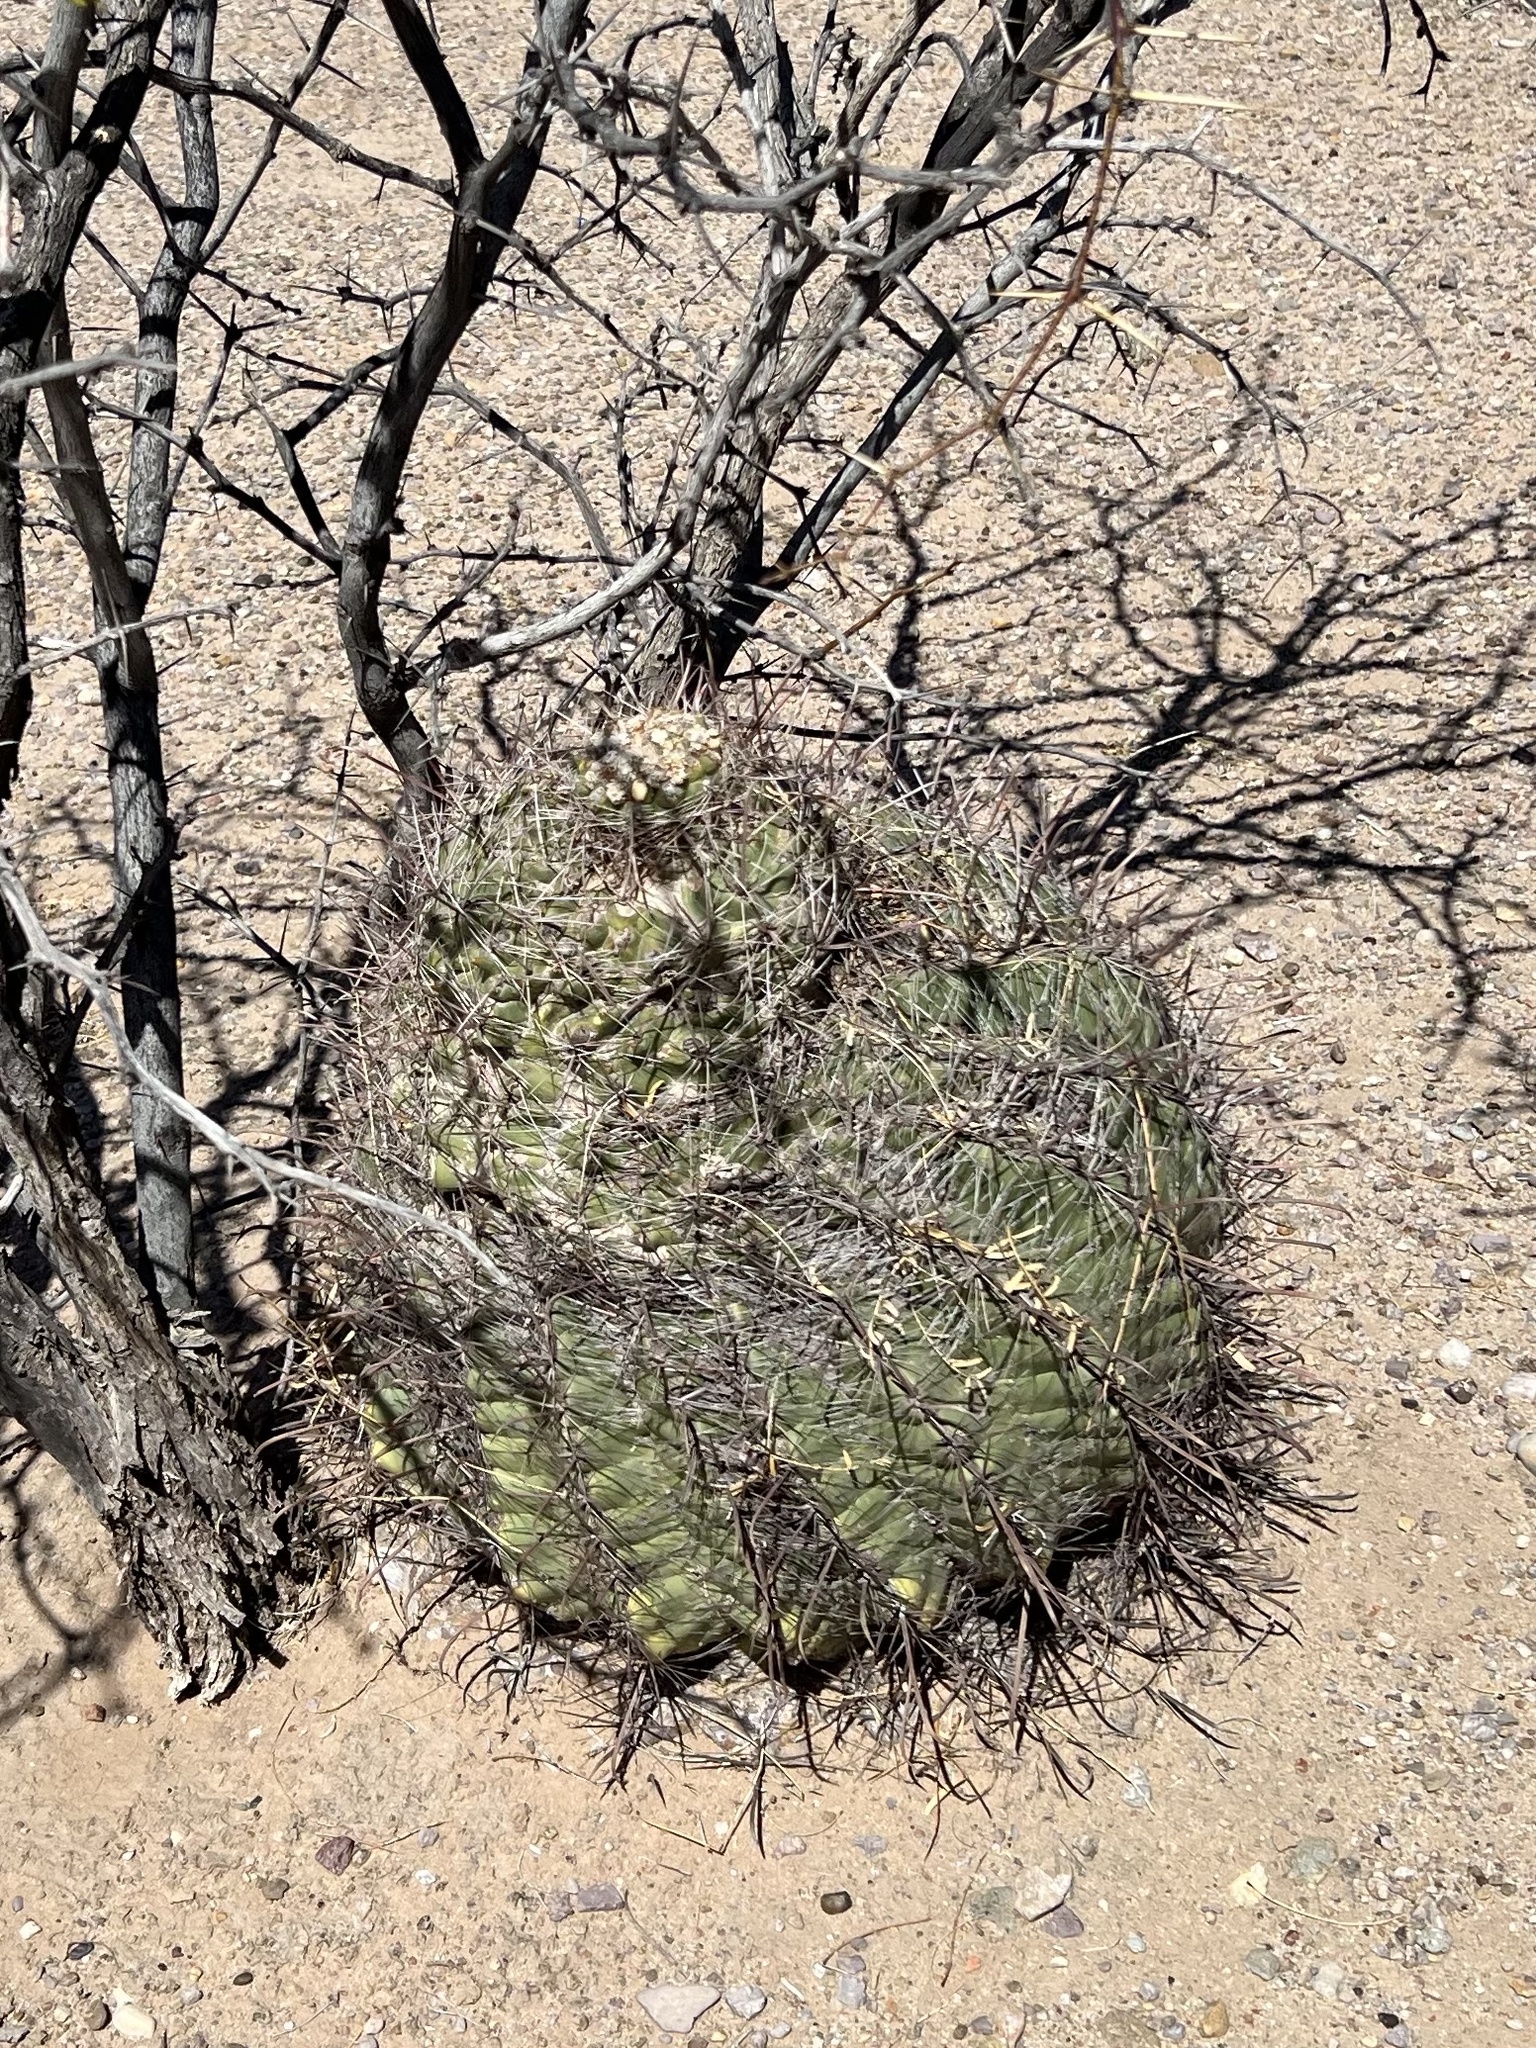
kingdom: Plantae
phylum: Tracheophyta
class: Magnoliopsida
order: Caryophyllales
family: Cactaceae
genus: Ferocactus
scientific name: Ferocactus wislizeni
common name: Candy barrel cactus
